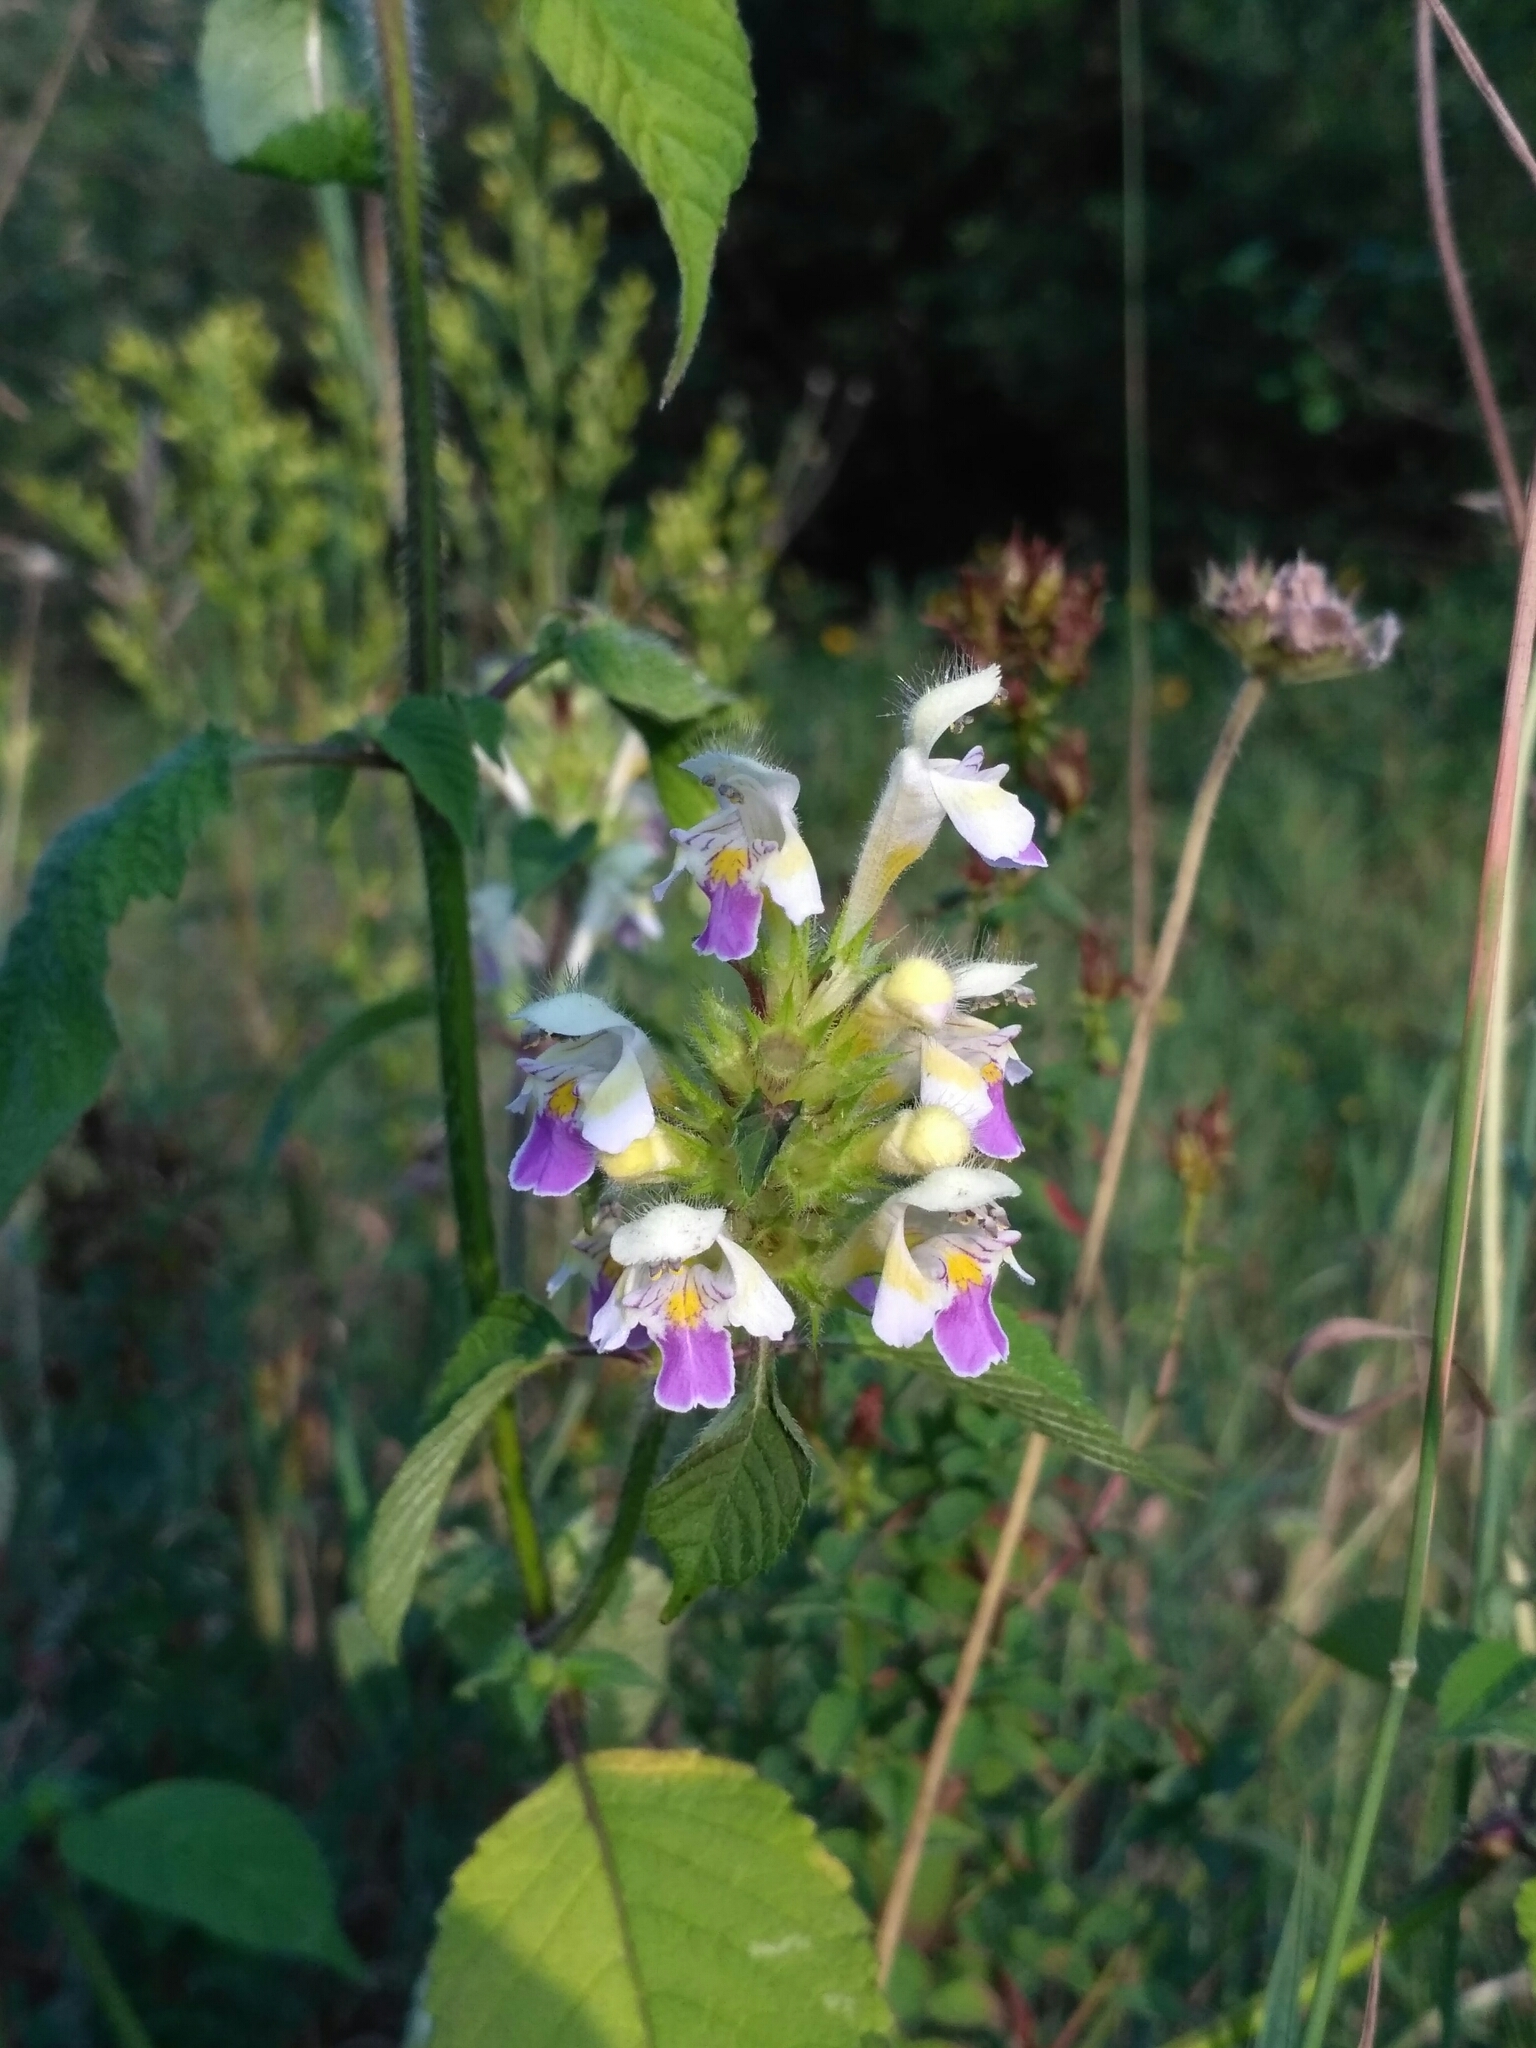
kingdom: Plantae
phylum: Tracheophyta
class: Magnoliopsida
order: Lamiales
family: Lamiaceae
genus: Galeopsis
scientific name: Galeopsis speciosa
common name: Large-flowered hemp-nettle
